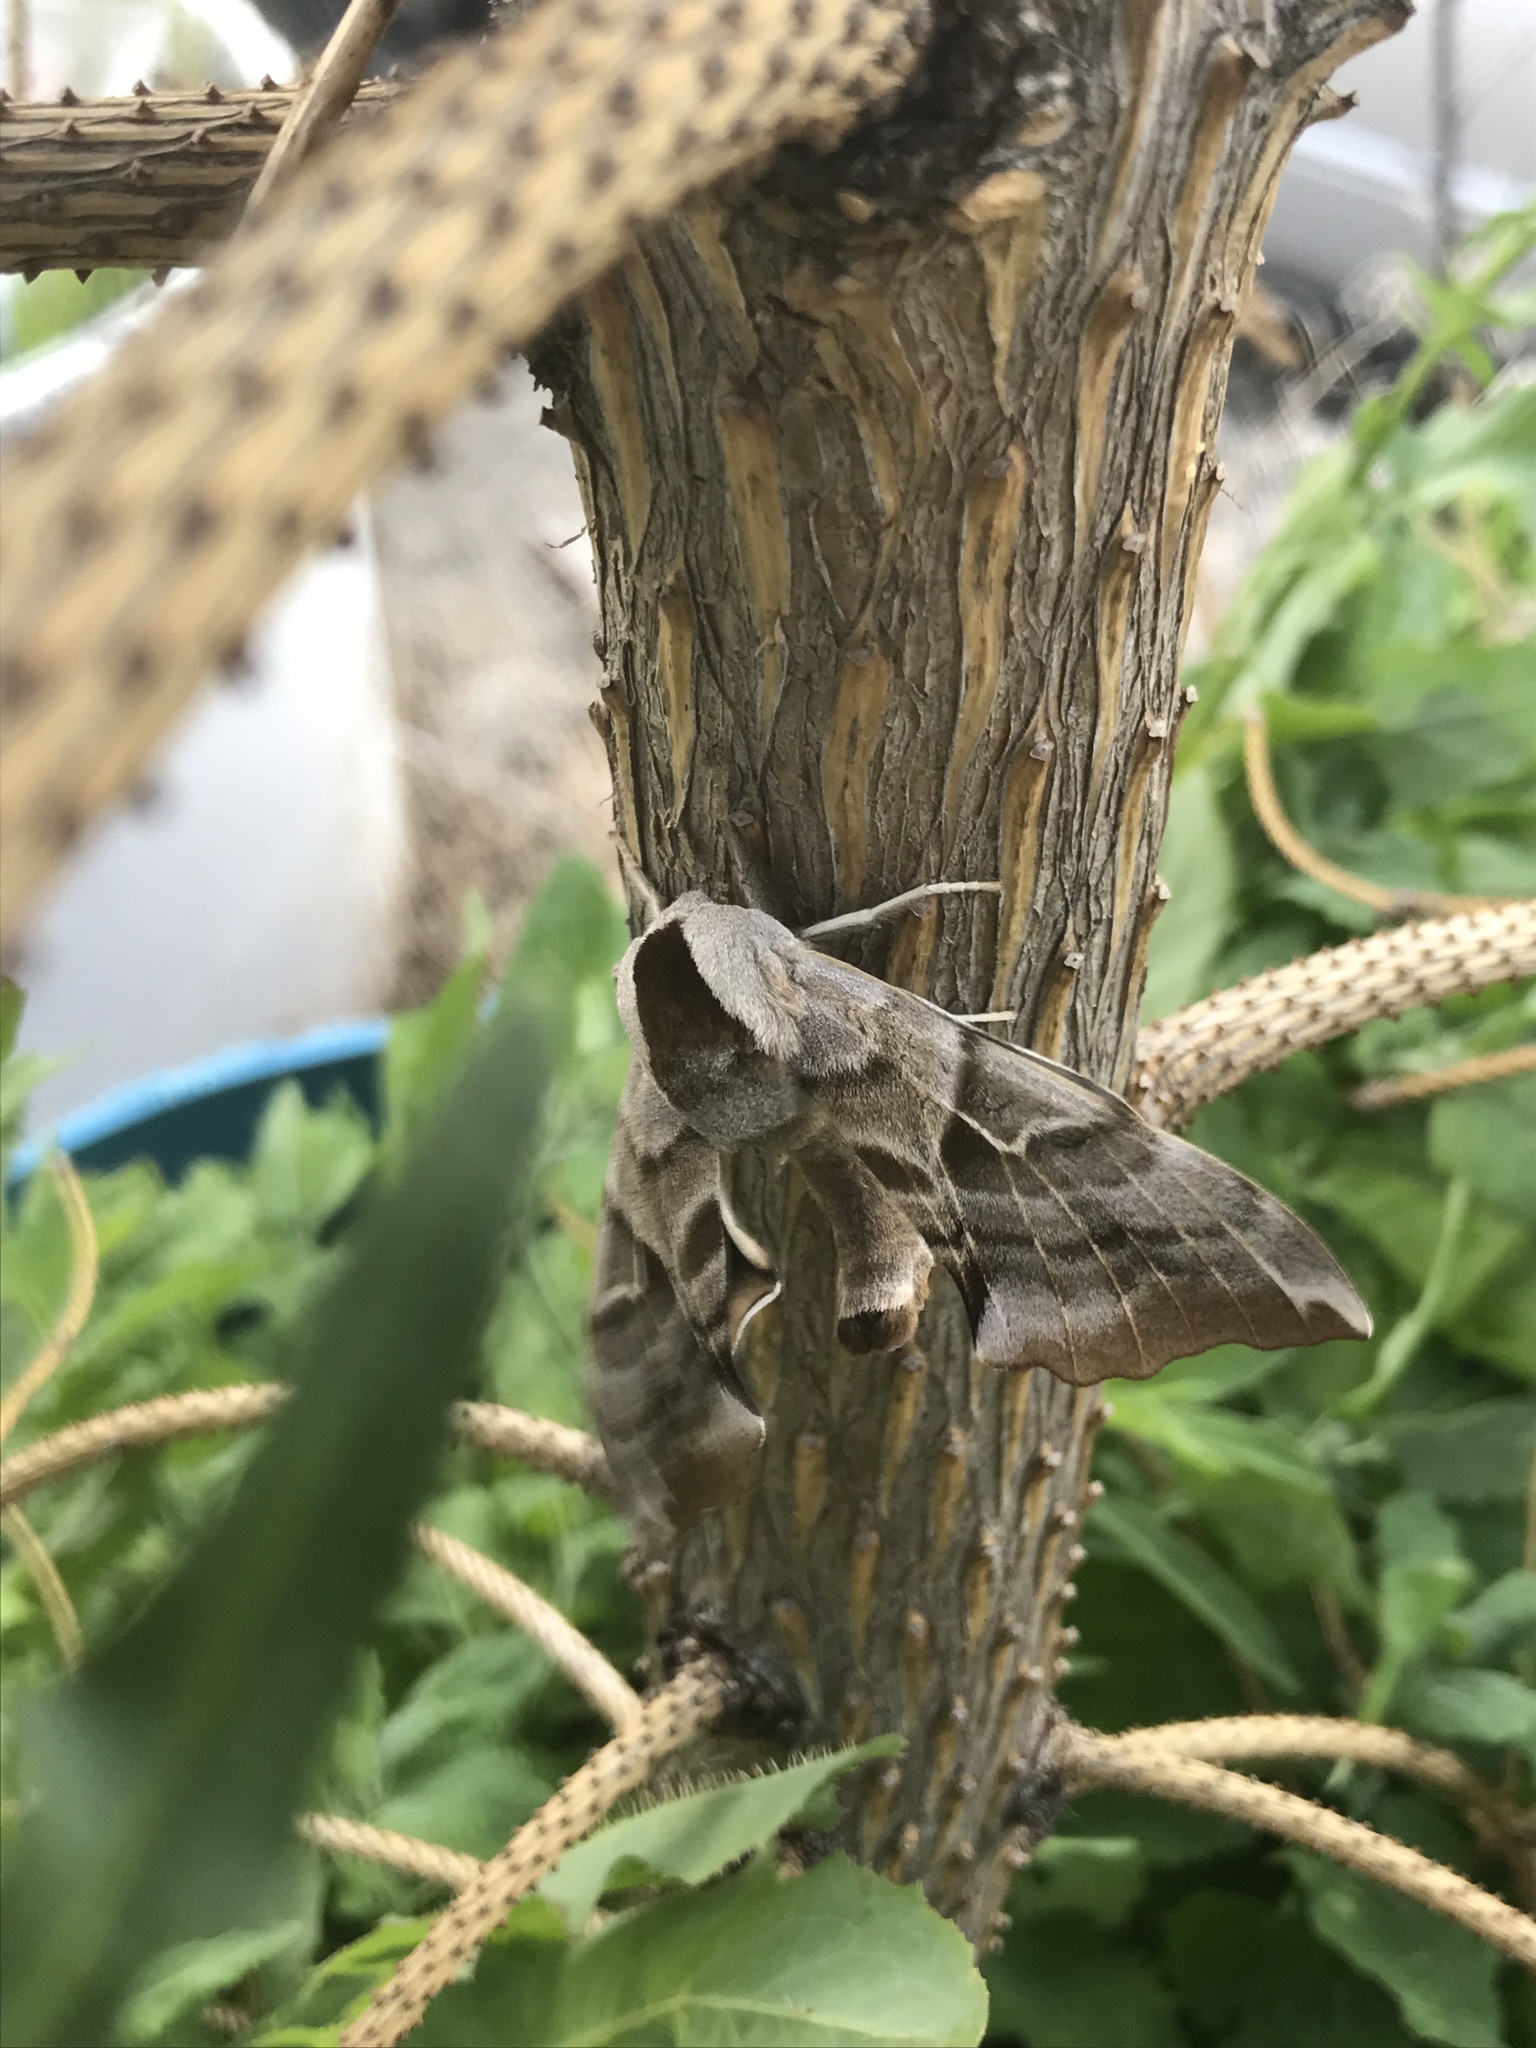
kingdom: Animalia
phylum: Arthropoda
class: Insecta
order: Lepidoptera
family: Sphingidae
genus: Smerinthus
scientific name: Smerinthus cerisyi
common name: Cerisy's sphinx moth
